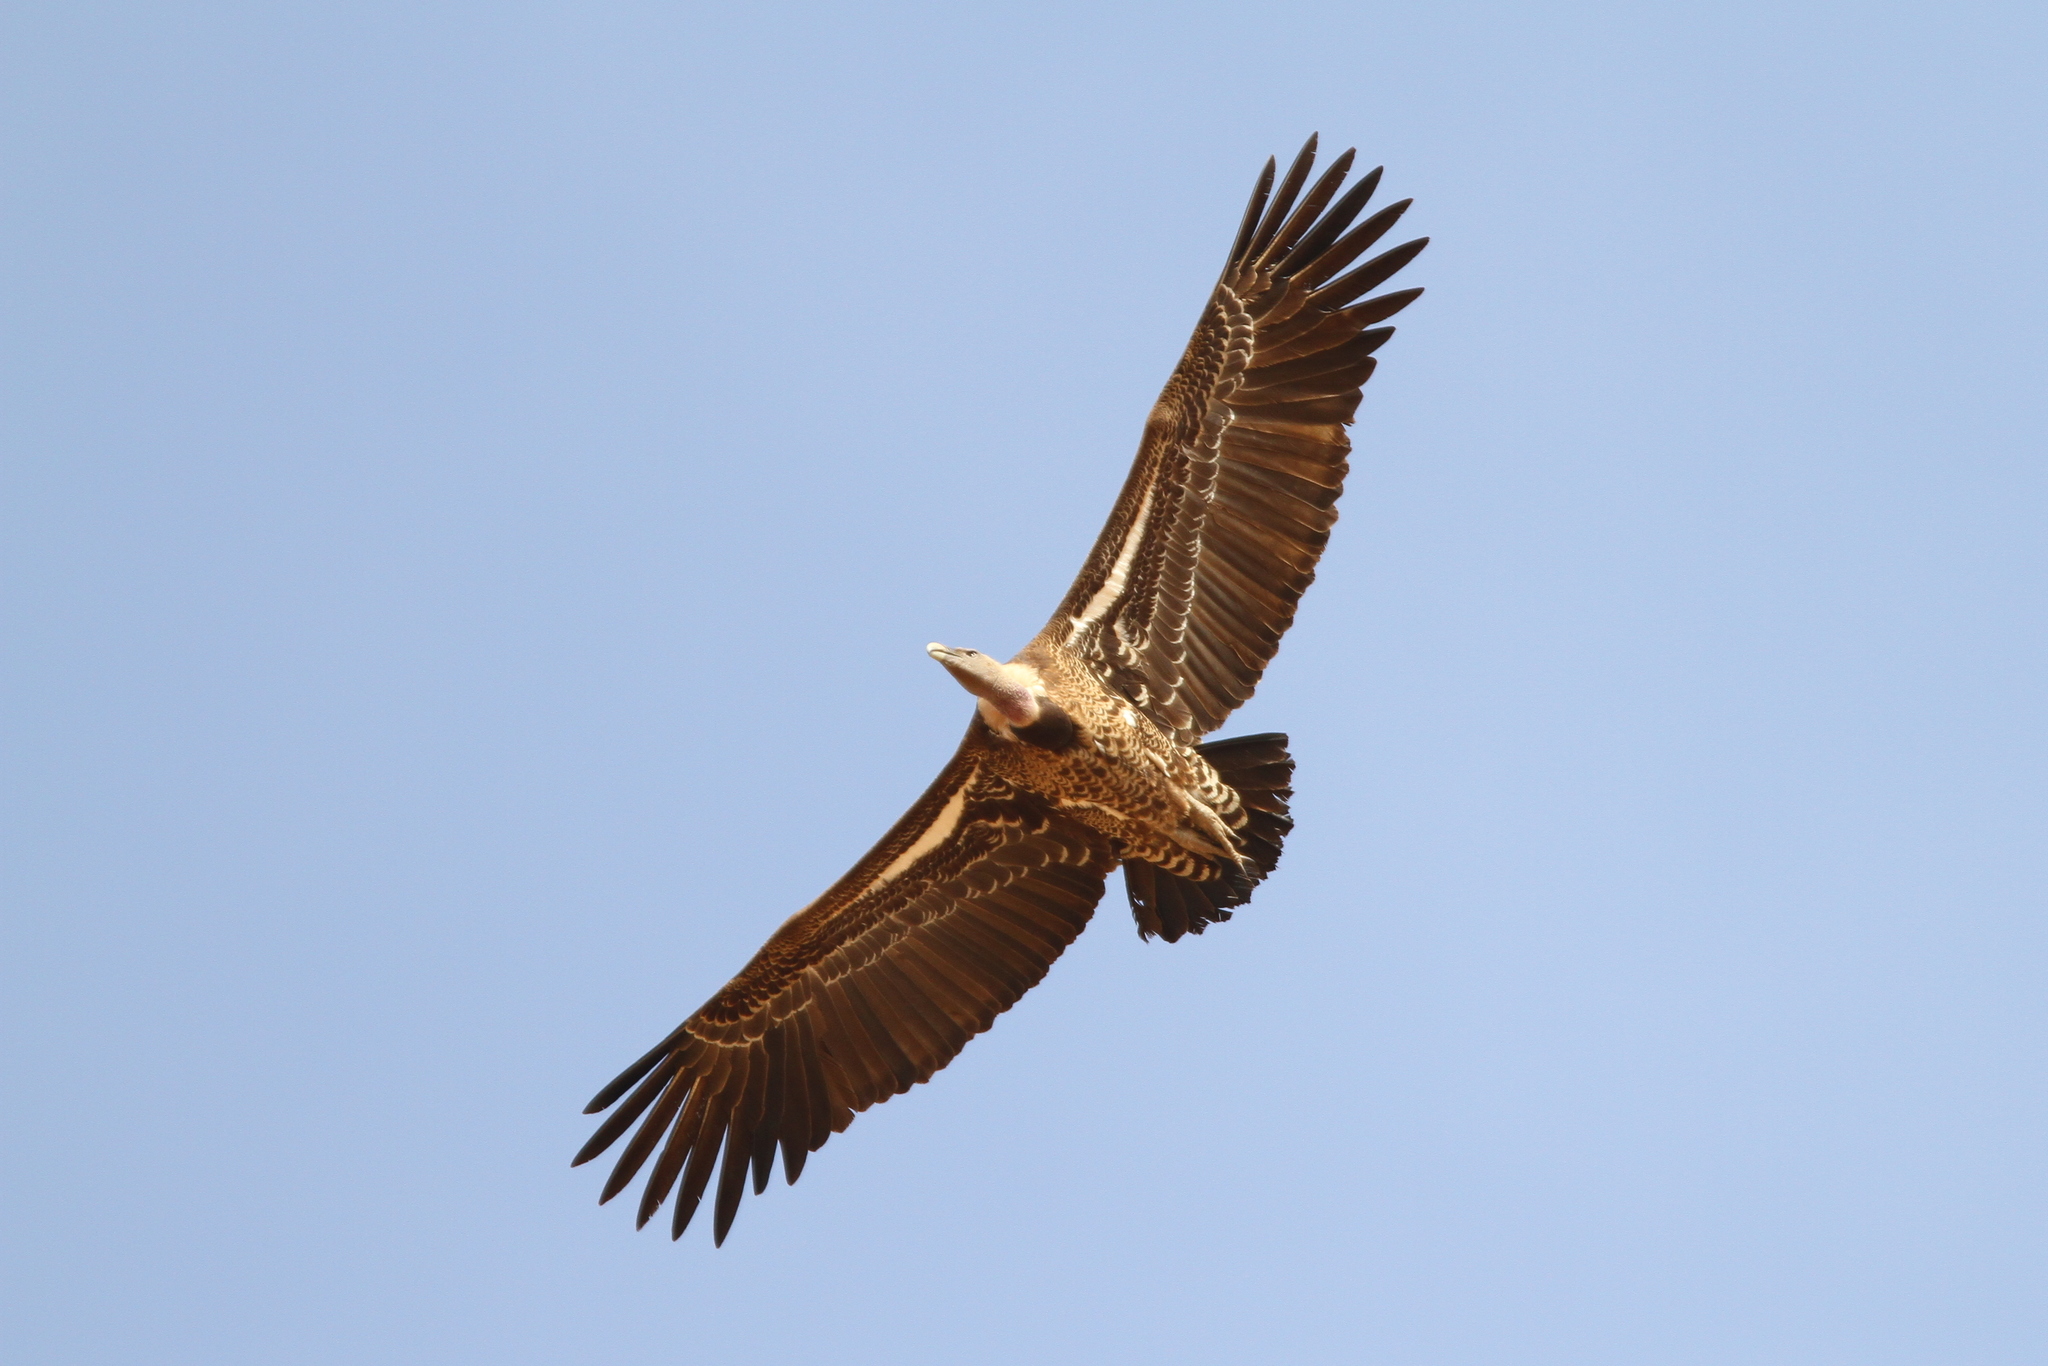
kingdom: Animalia
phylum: Chordata
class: Aves
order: Accipitriformes
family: Accipitridae
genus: Gyps
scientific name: Gyps rueppellii
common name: Rüppell's vulture
